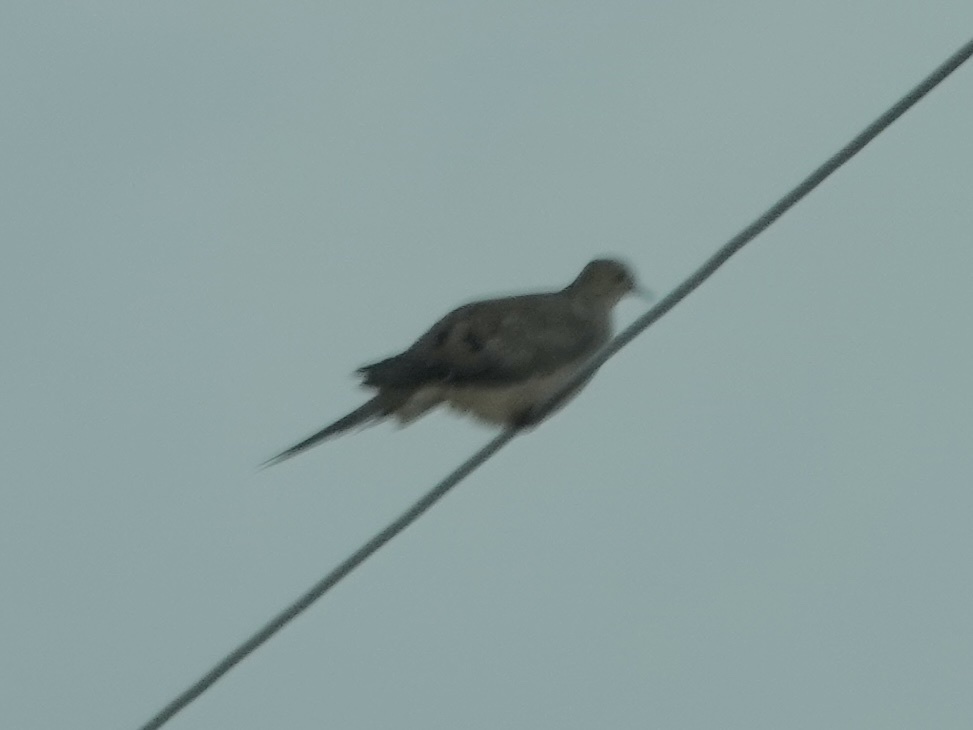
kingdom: Animalia
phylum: Chordata
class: Aves
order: Columbiformes
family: Columbidae
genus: Zenaida
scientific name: Zenaida macroura
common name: Mourning dove
